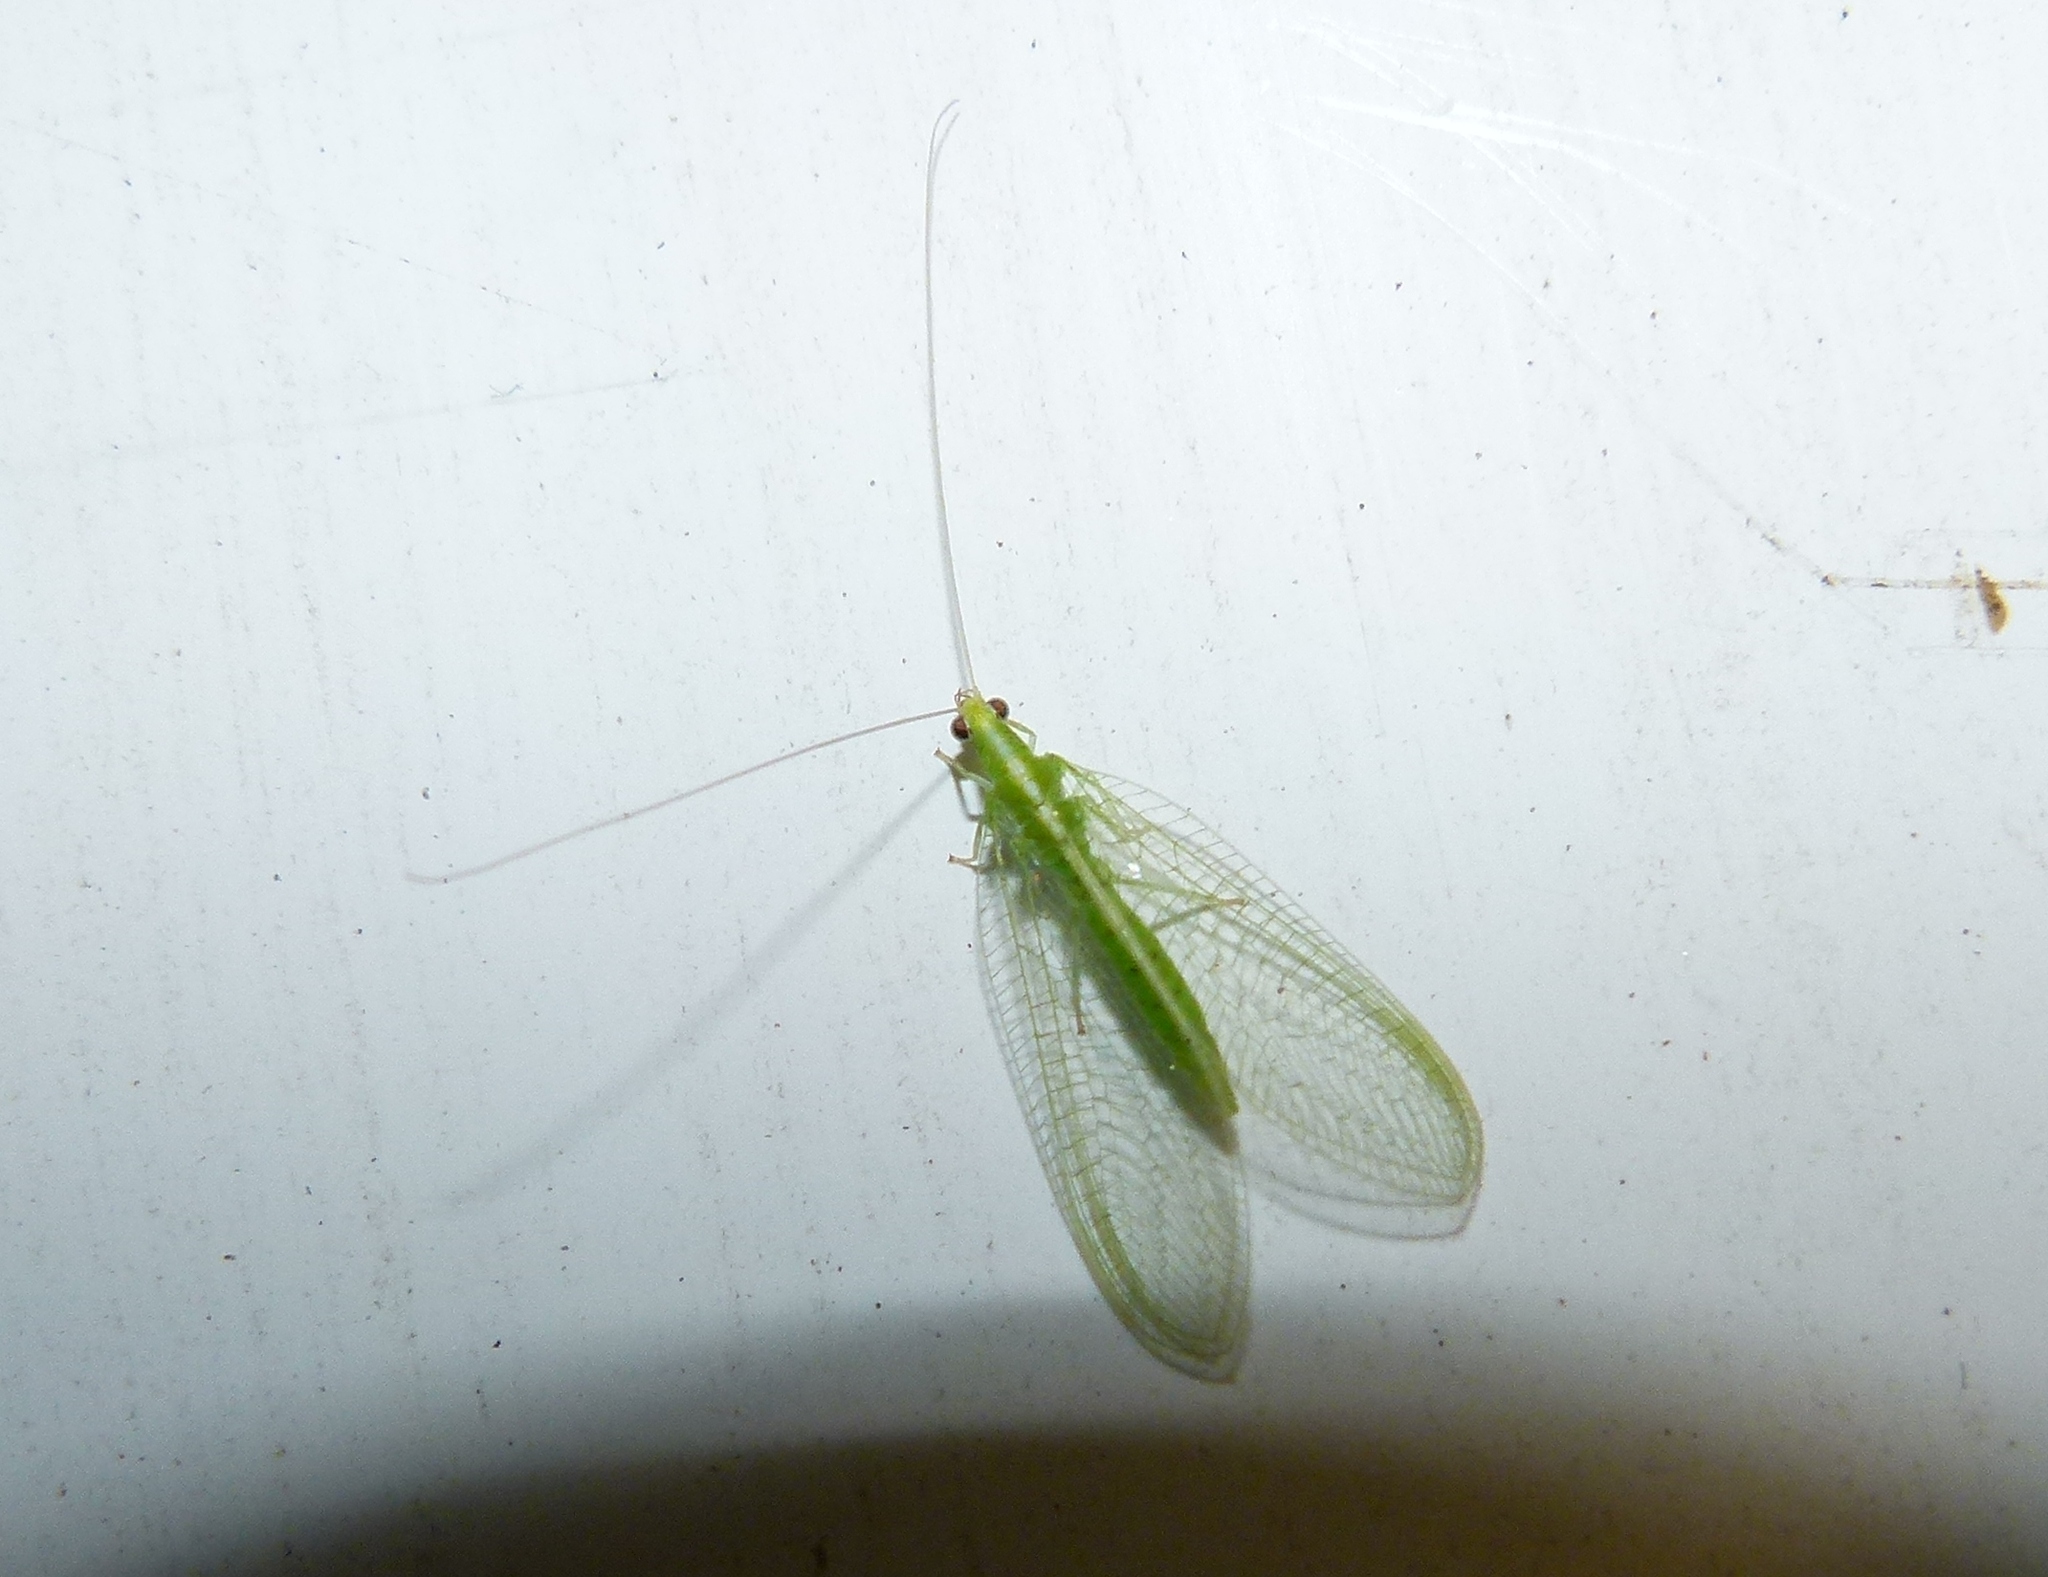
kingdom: Animalia
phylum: Arthropoda
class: Insecta
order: Neuroptera
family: Chrysopidae
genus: Chrysoperla
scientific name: Chrysoperla
